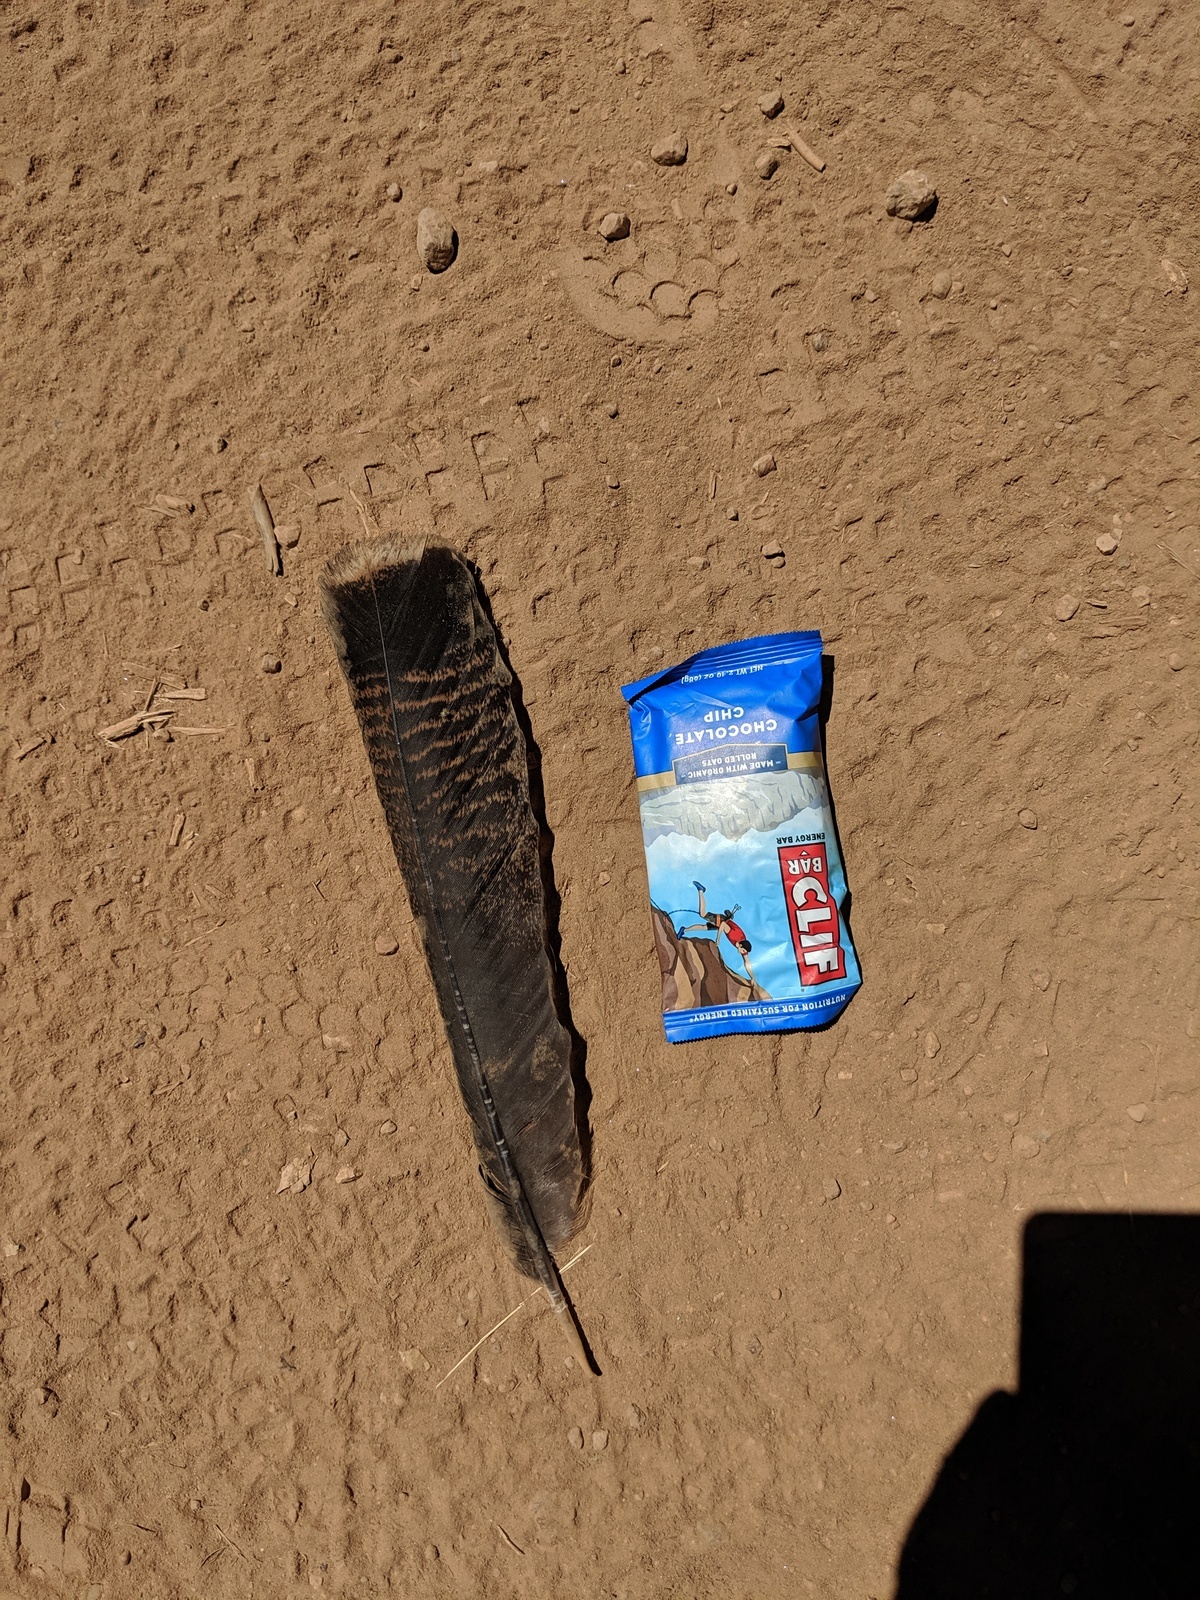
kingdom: Animalia
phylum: Chordata
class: Aves
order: Galliformes
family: Phasianidae
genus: Meleagris
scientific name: Meleagris gallopavo
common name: Wild turkey
